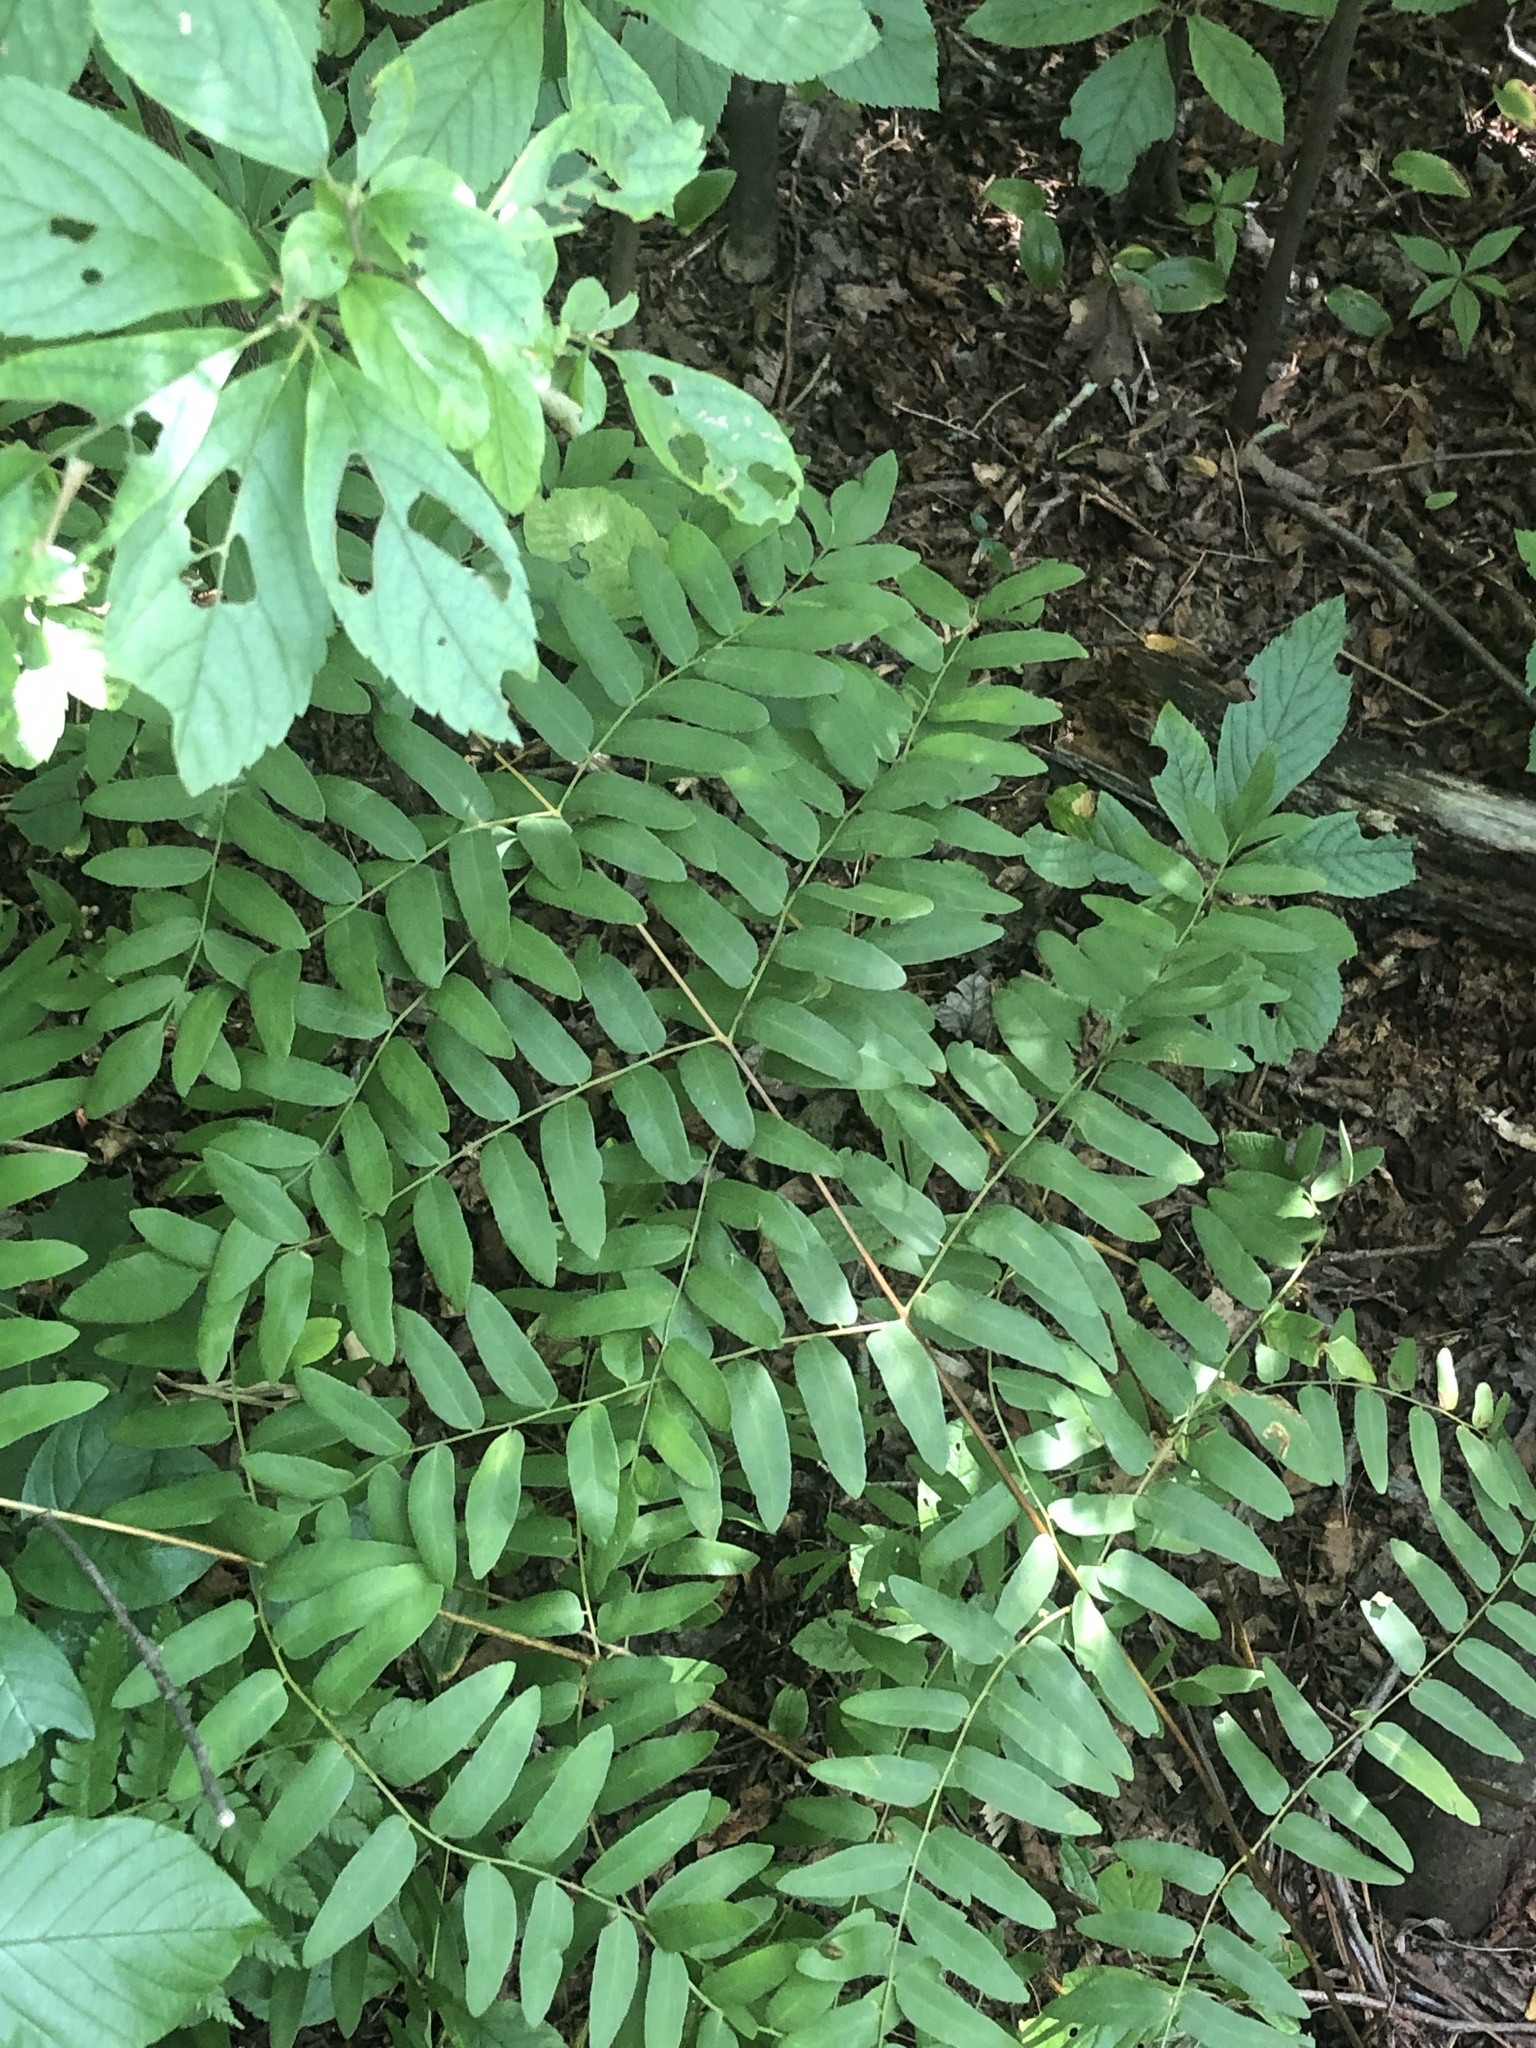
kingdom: Plantae
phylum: Tracheophyta
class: Polypodiopsida
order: Osmundales
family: Osmundaceae
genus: Osmunda
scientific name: Osmunda spectabilis
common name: American royal fern
